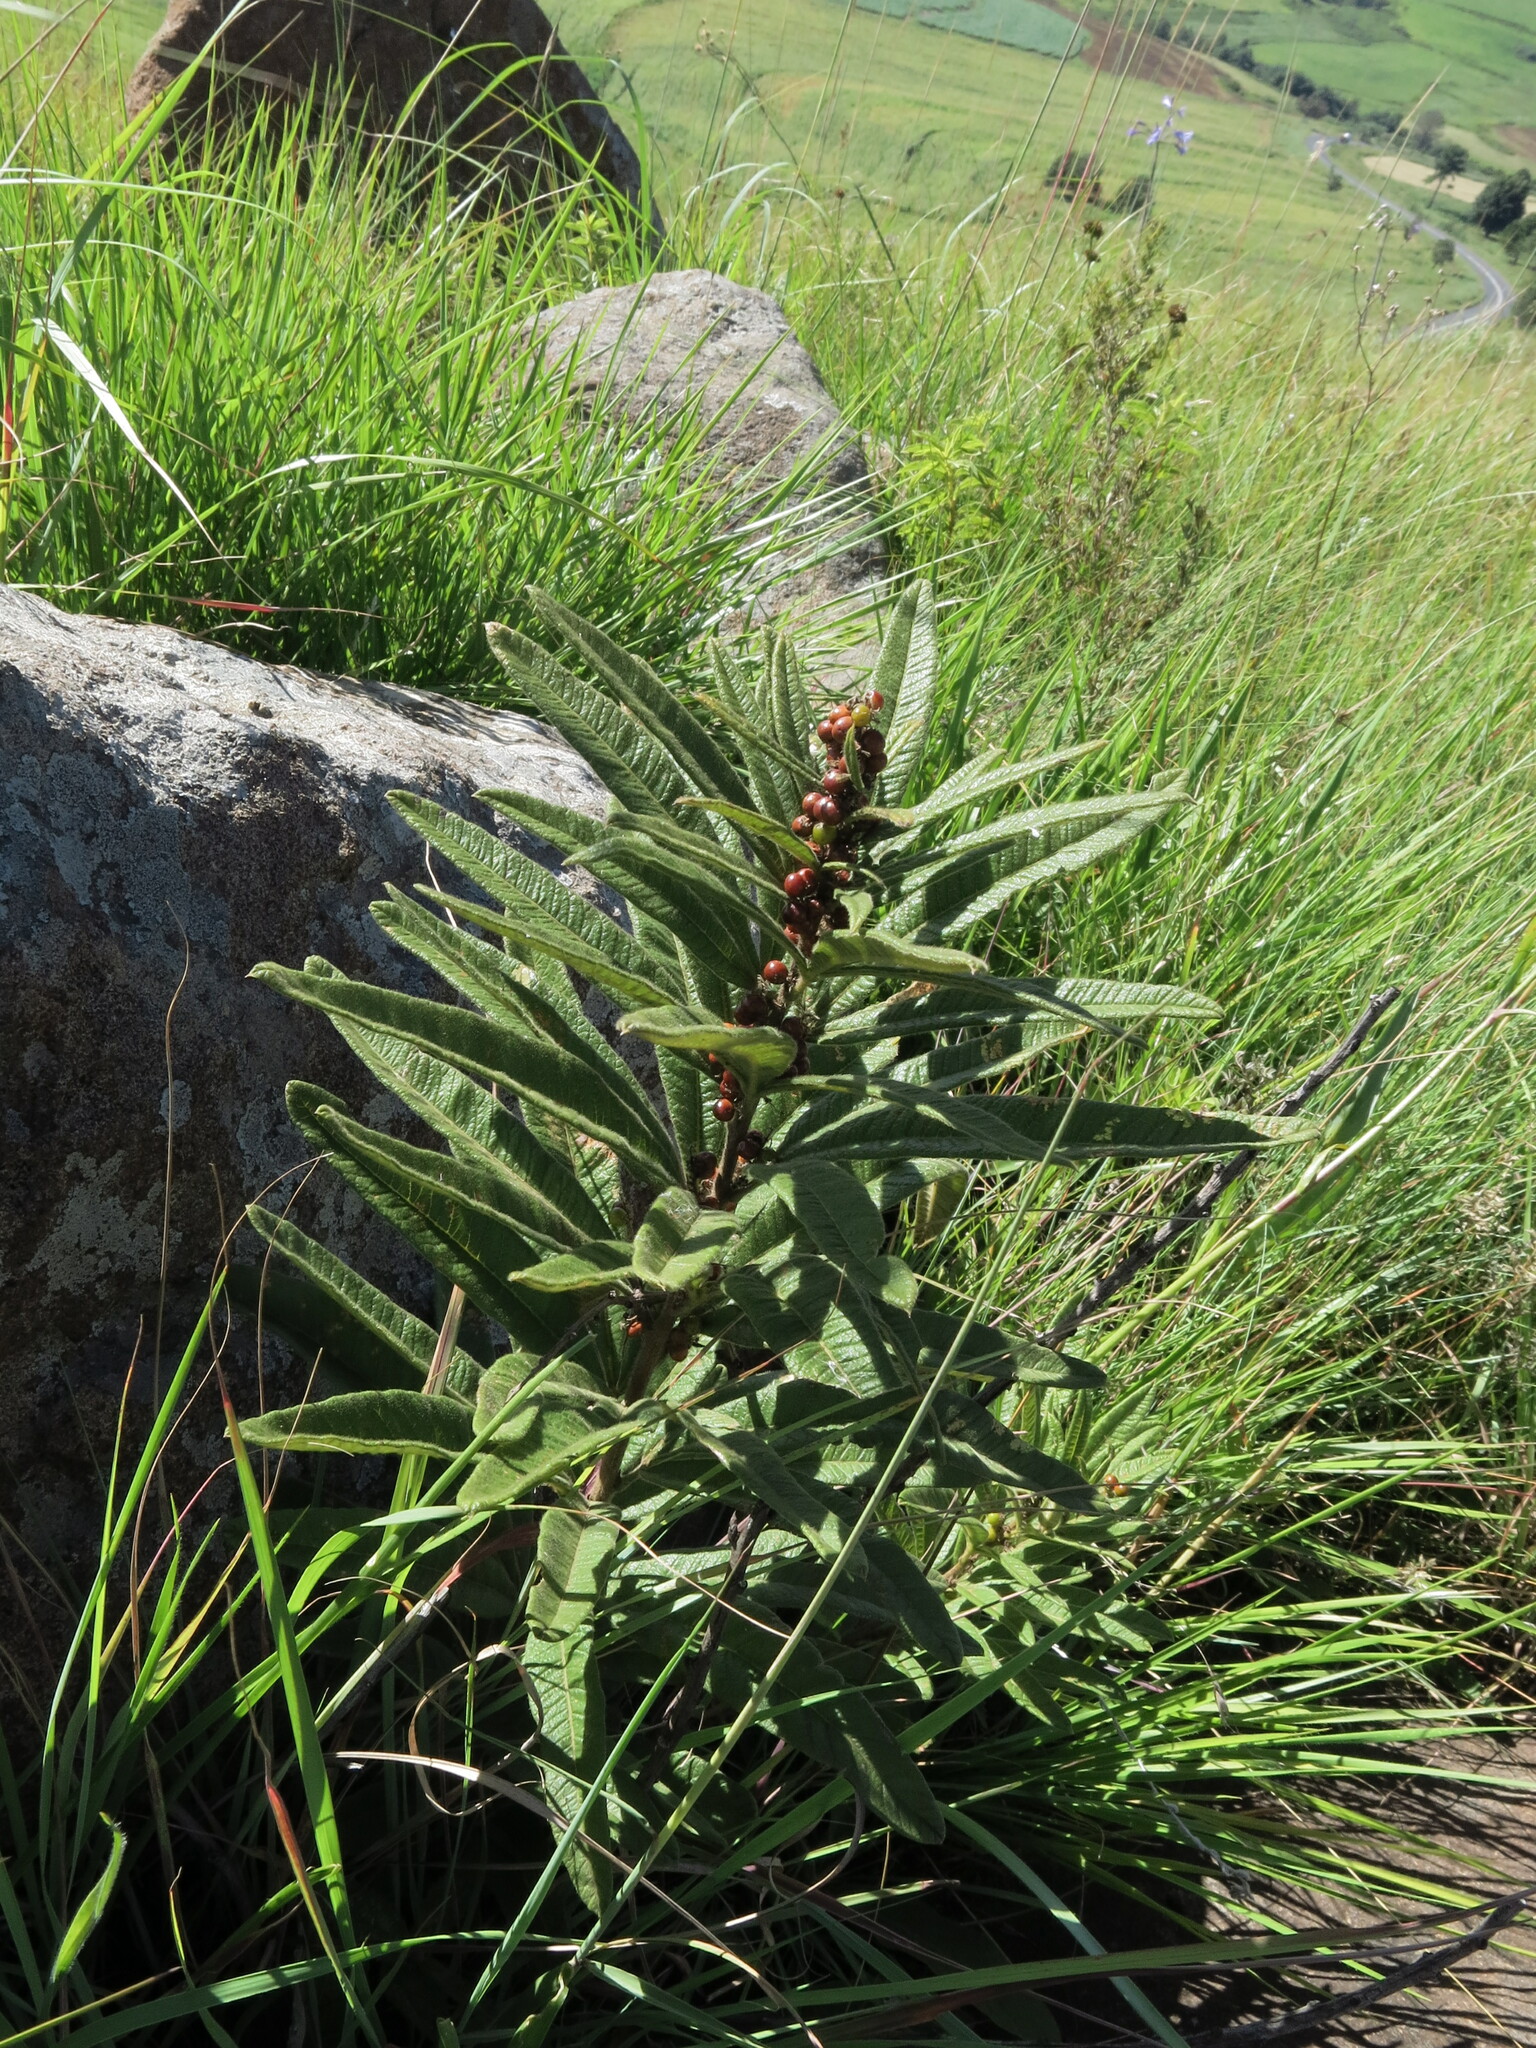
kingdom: Plantae
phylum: Tracheophyta
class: Magnoliopsida
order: Sapindales
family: Anacardiaceae
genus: Searsia
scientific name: Searsia discolor
